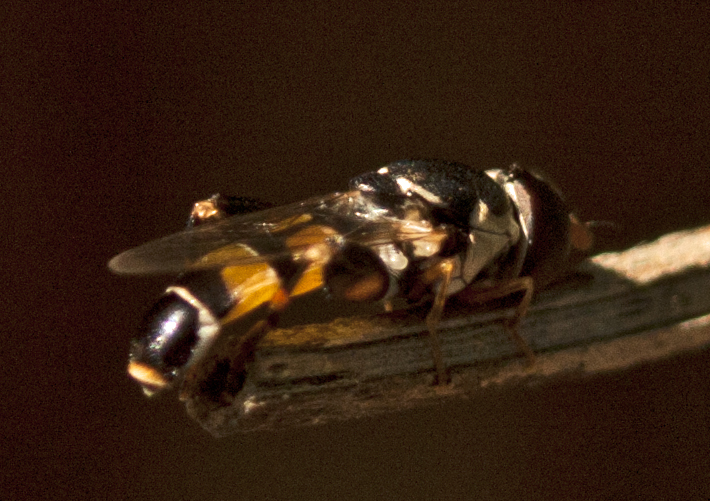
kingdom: Animalia
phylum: Arthropoda
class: Insecta
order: Diptera
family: Syrphidae
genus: Syritta
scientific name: Syritta orientalis
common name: Syrphid fly
